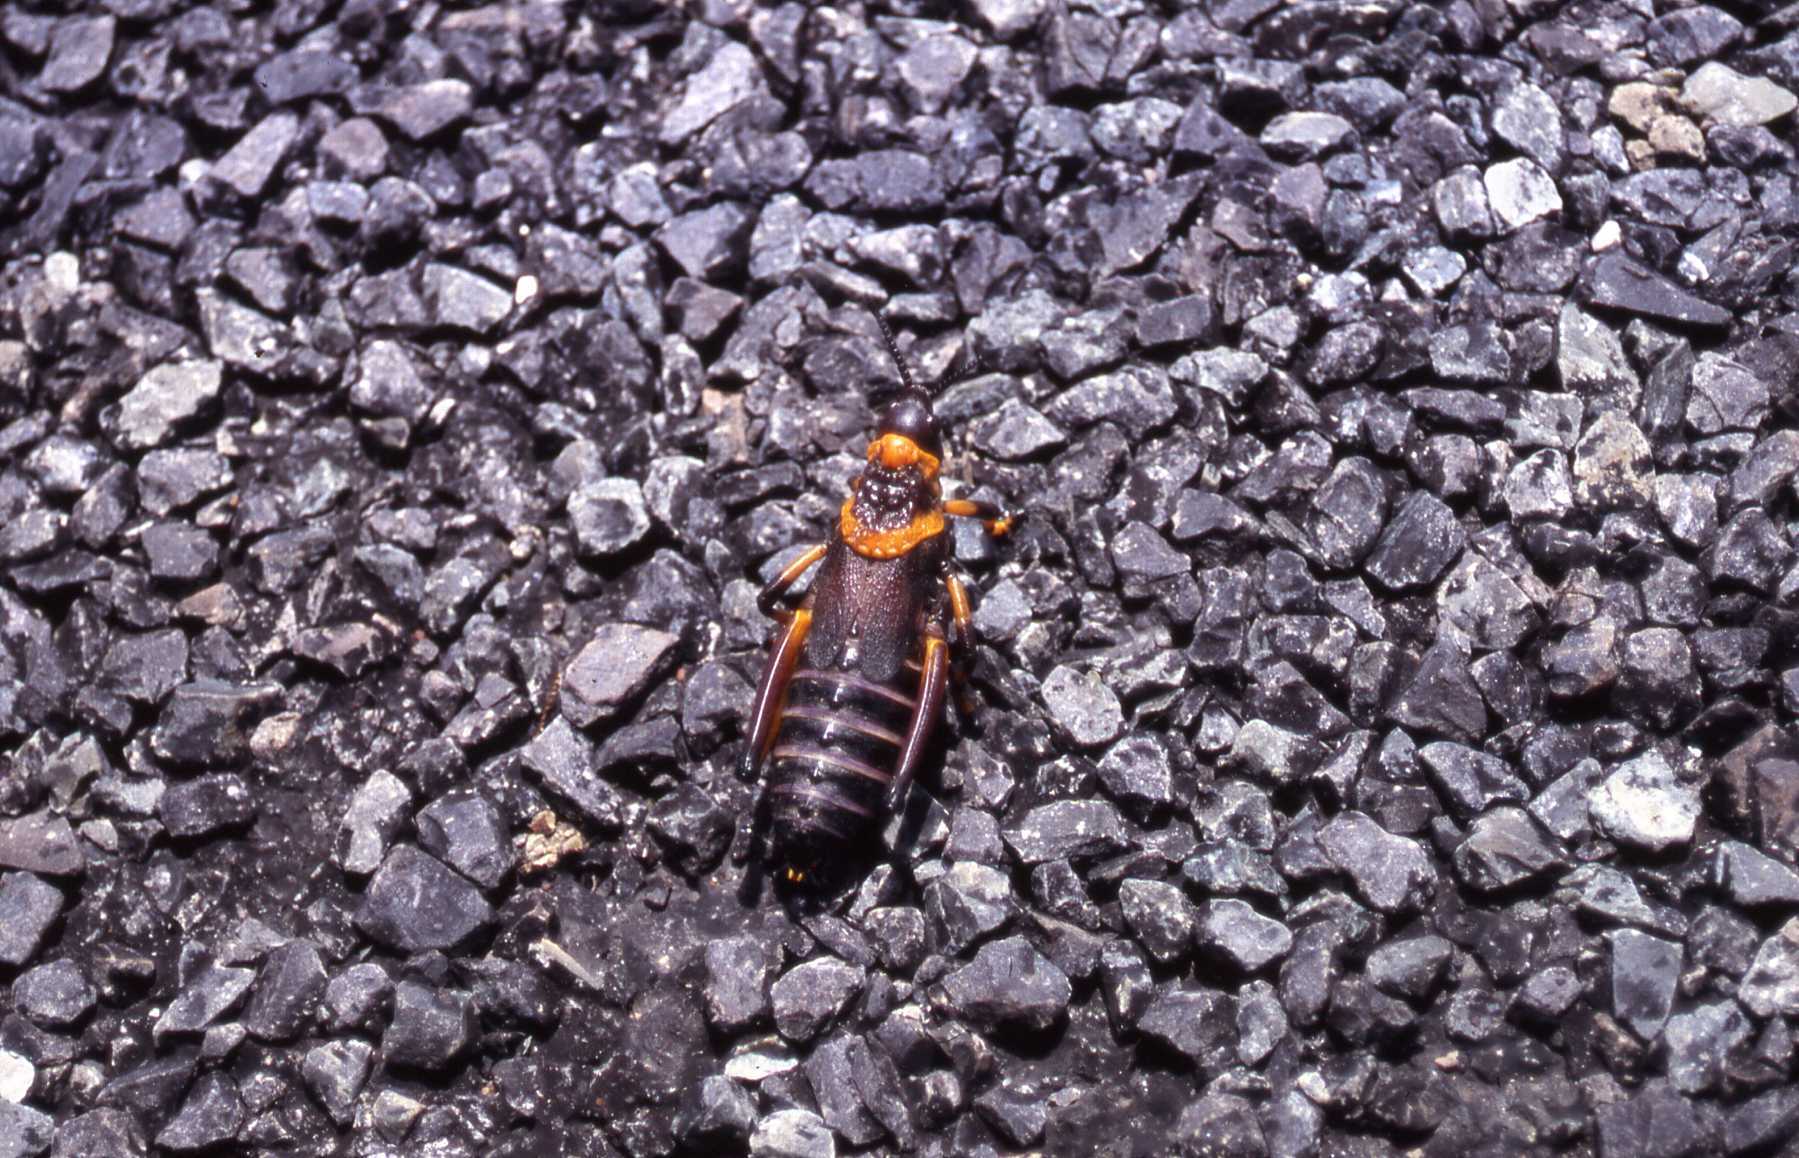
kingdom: Animalia
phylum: Arthropoda
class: Insecta
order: Orthoptera
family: Pyrgomorphidae
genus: Dictyophorus
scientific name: Dictyophorus spumans
